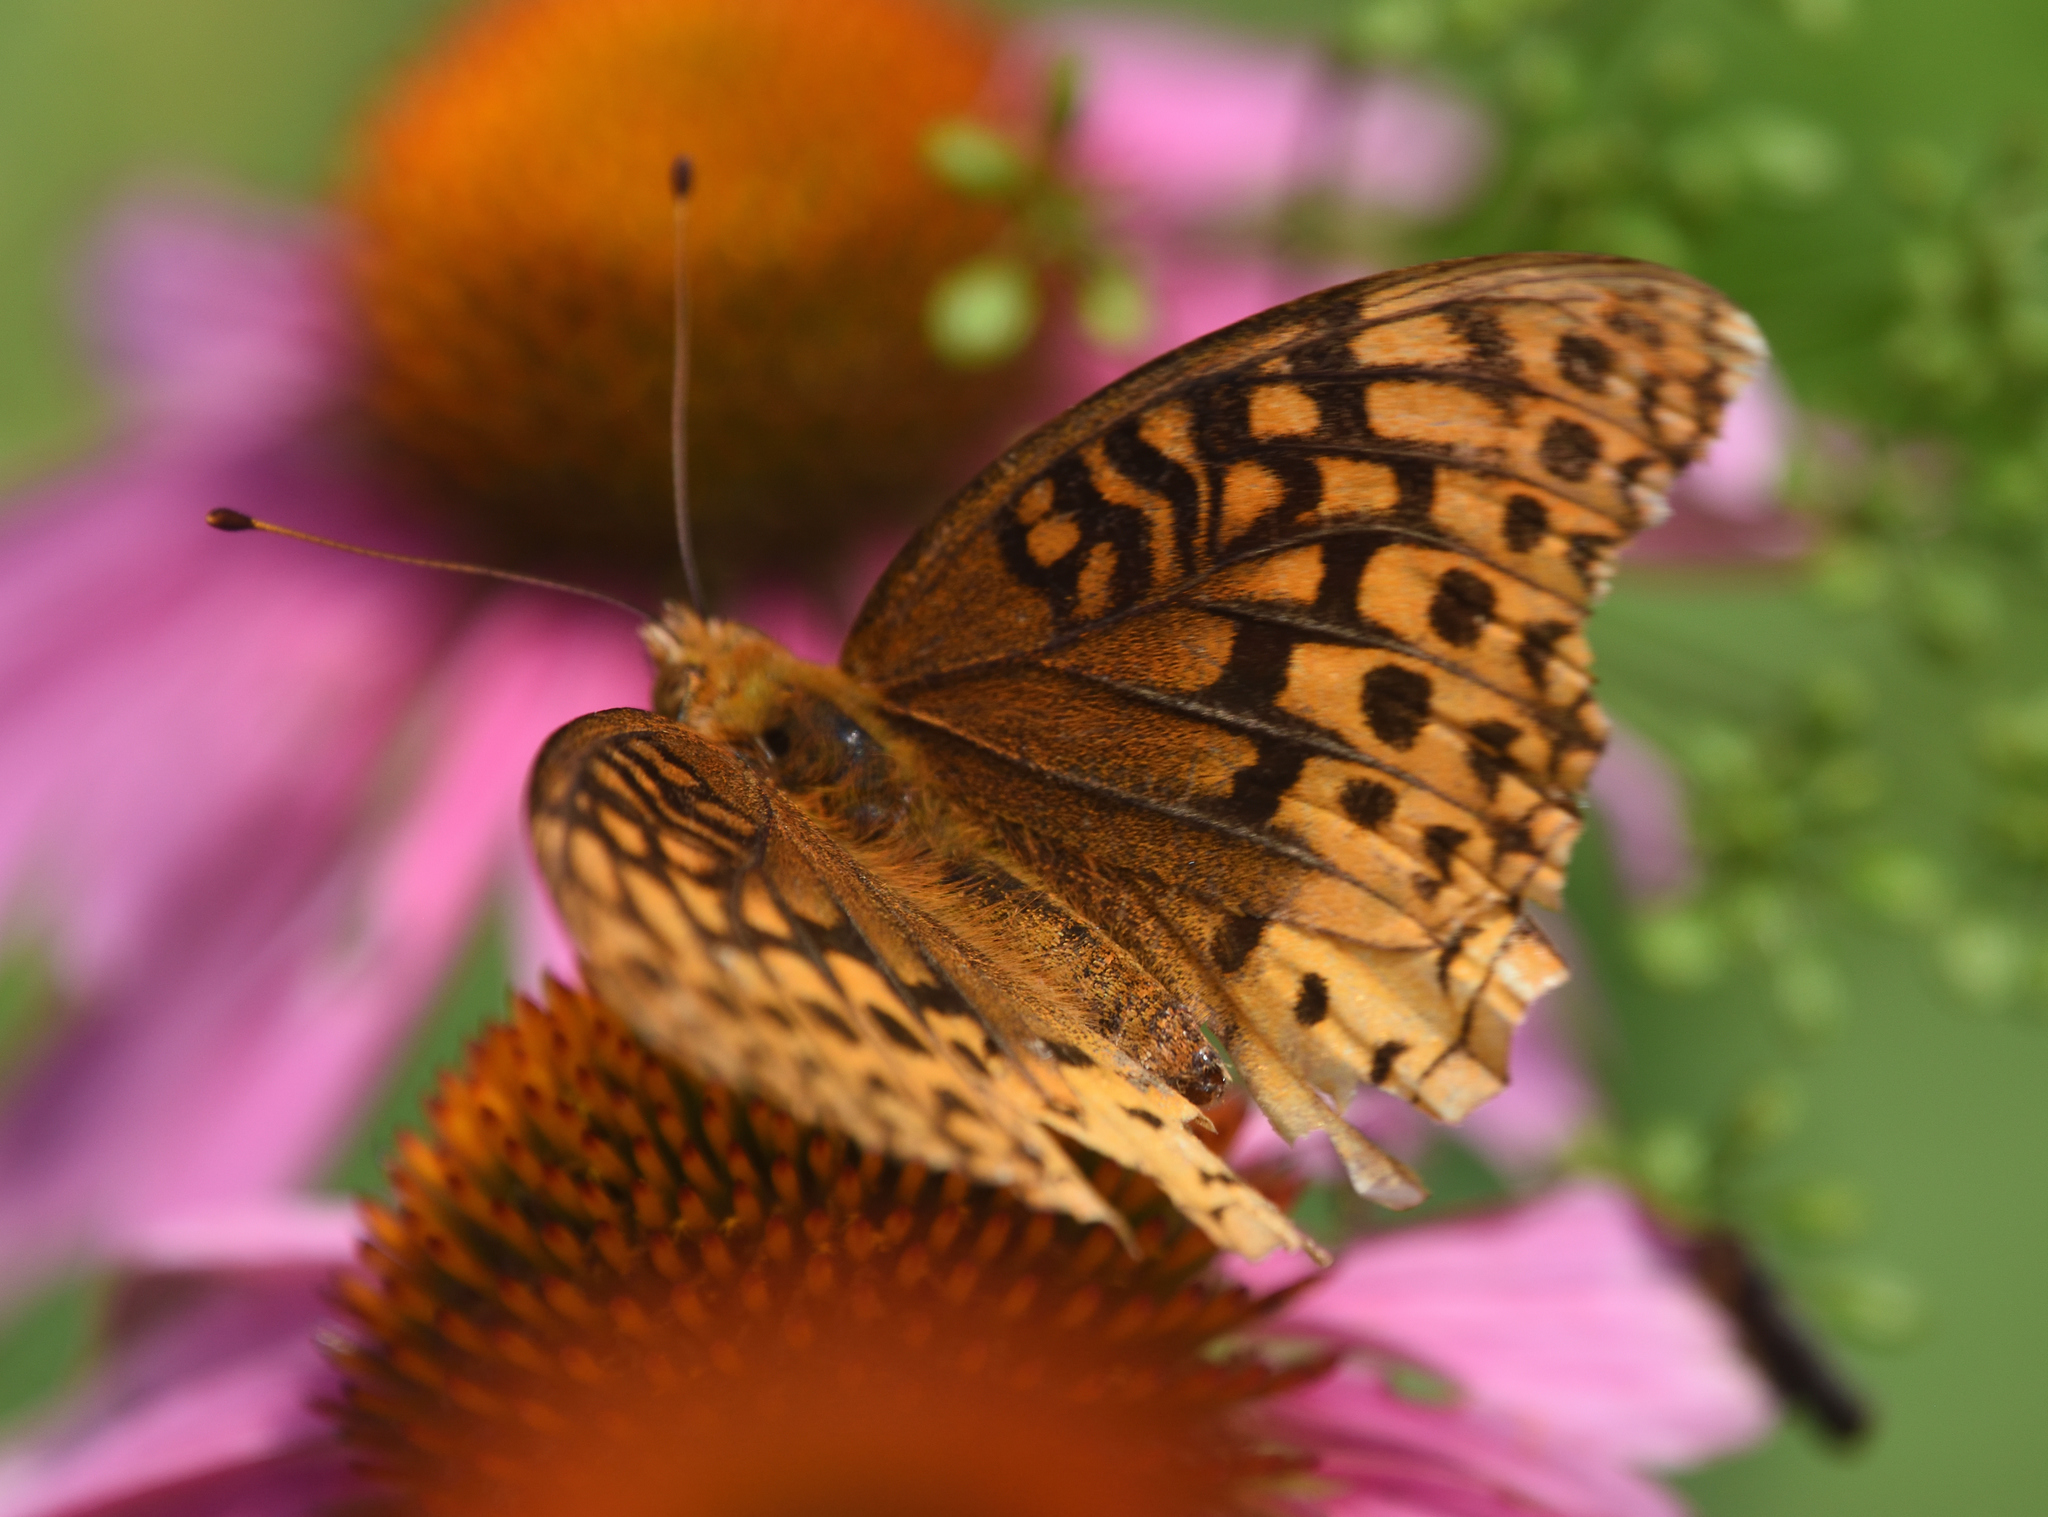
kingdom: Animalia
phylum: Arthropoda
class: Insecta
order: Lepidoptera
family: Nymphalidae
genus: Speyeria
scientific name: Speyeria cybele
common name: Great spangled fritillary
